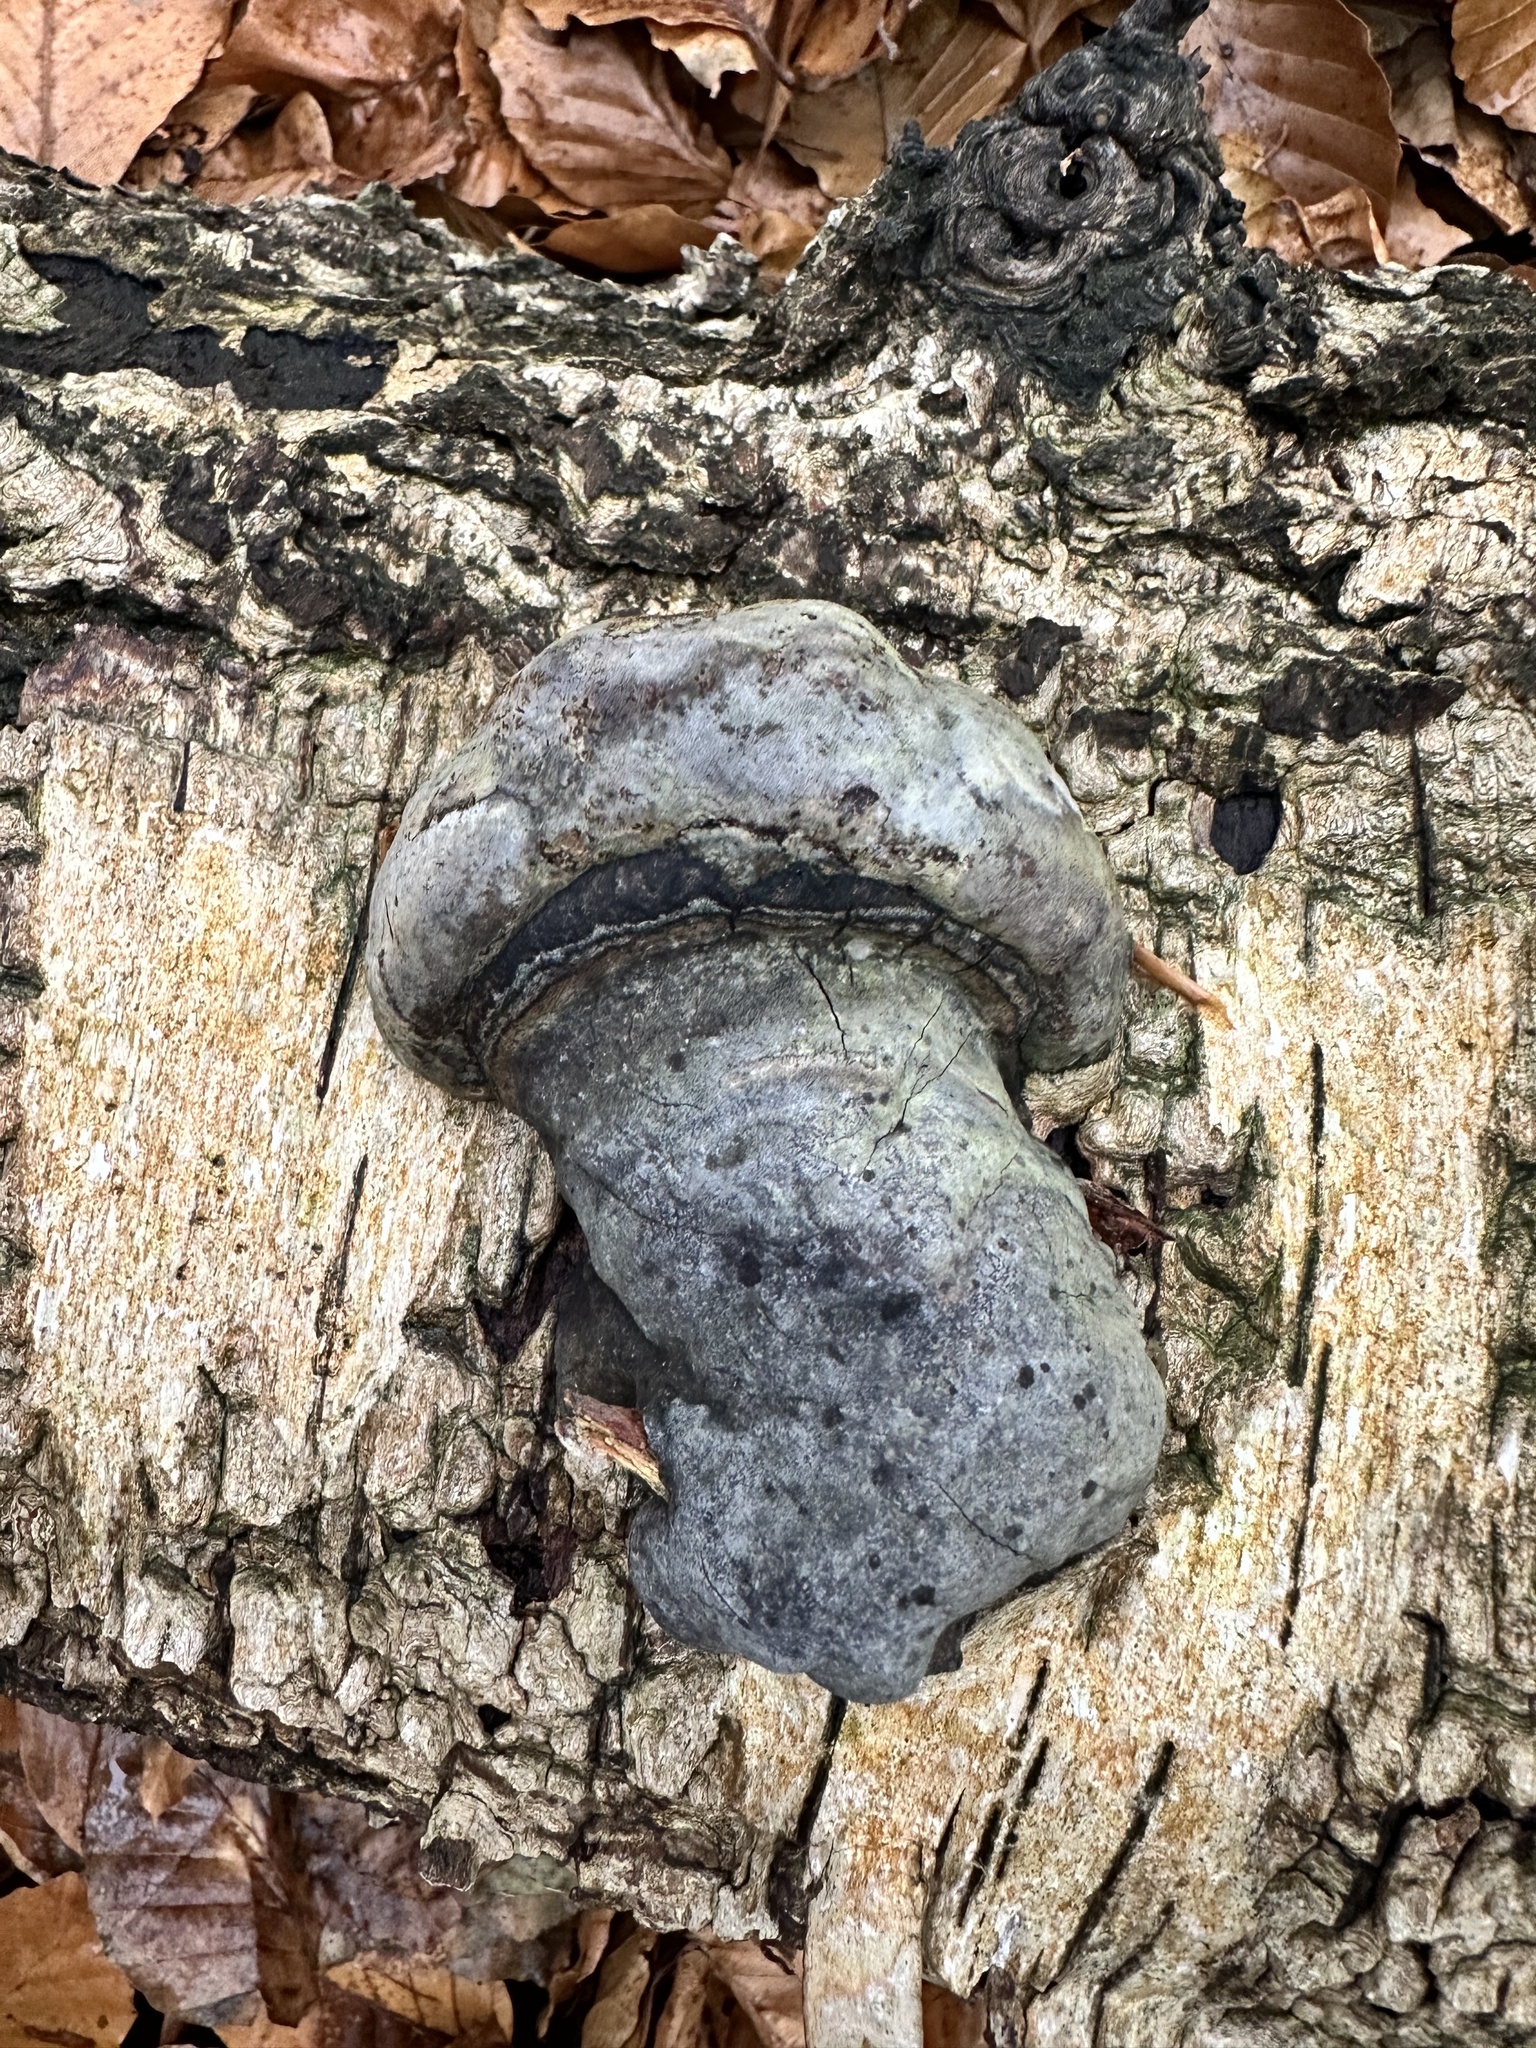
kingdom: Fungi
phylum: Basidiomycota
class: Agaricomycetes
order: Polyporales
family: Polyporaceae
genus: Fomes
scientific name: Fomes fomentarius
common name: Hoof fungus
